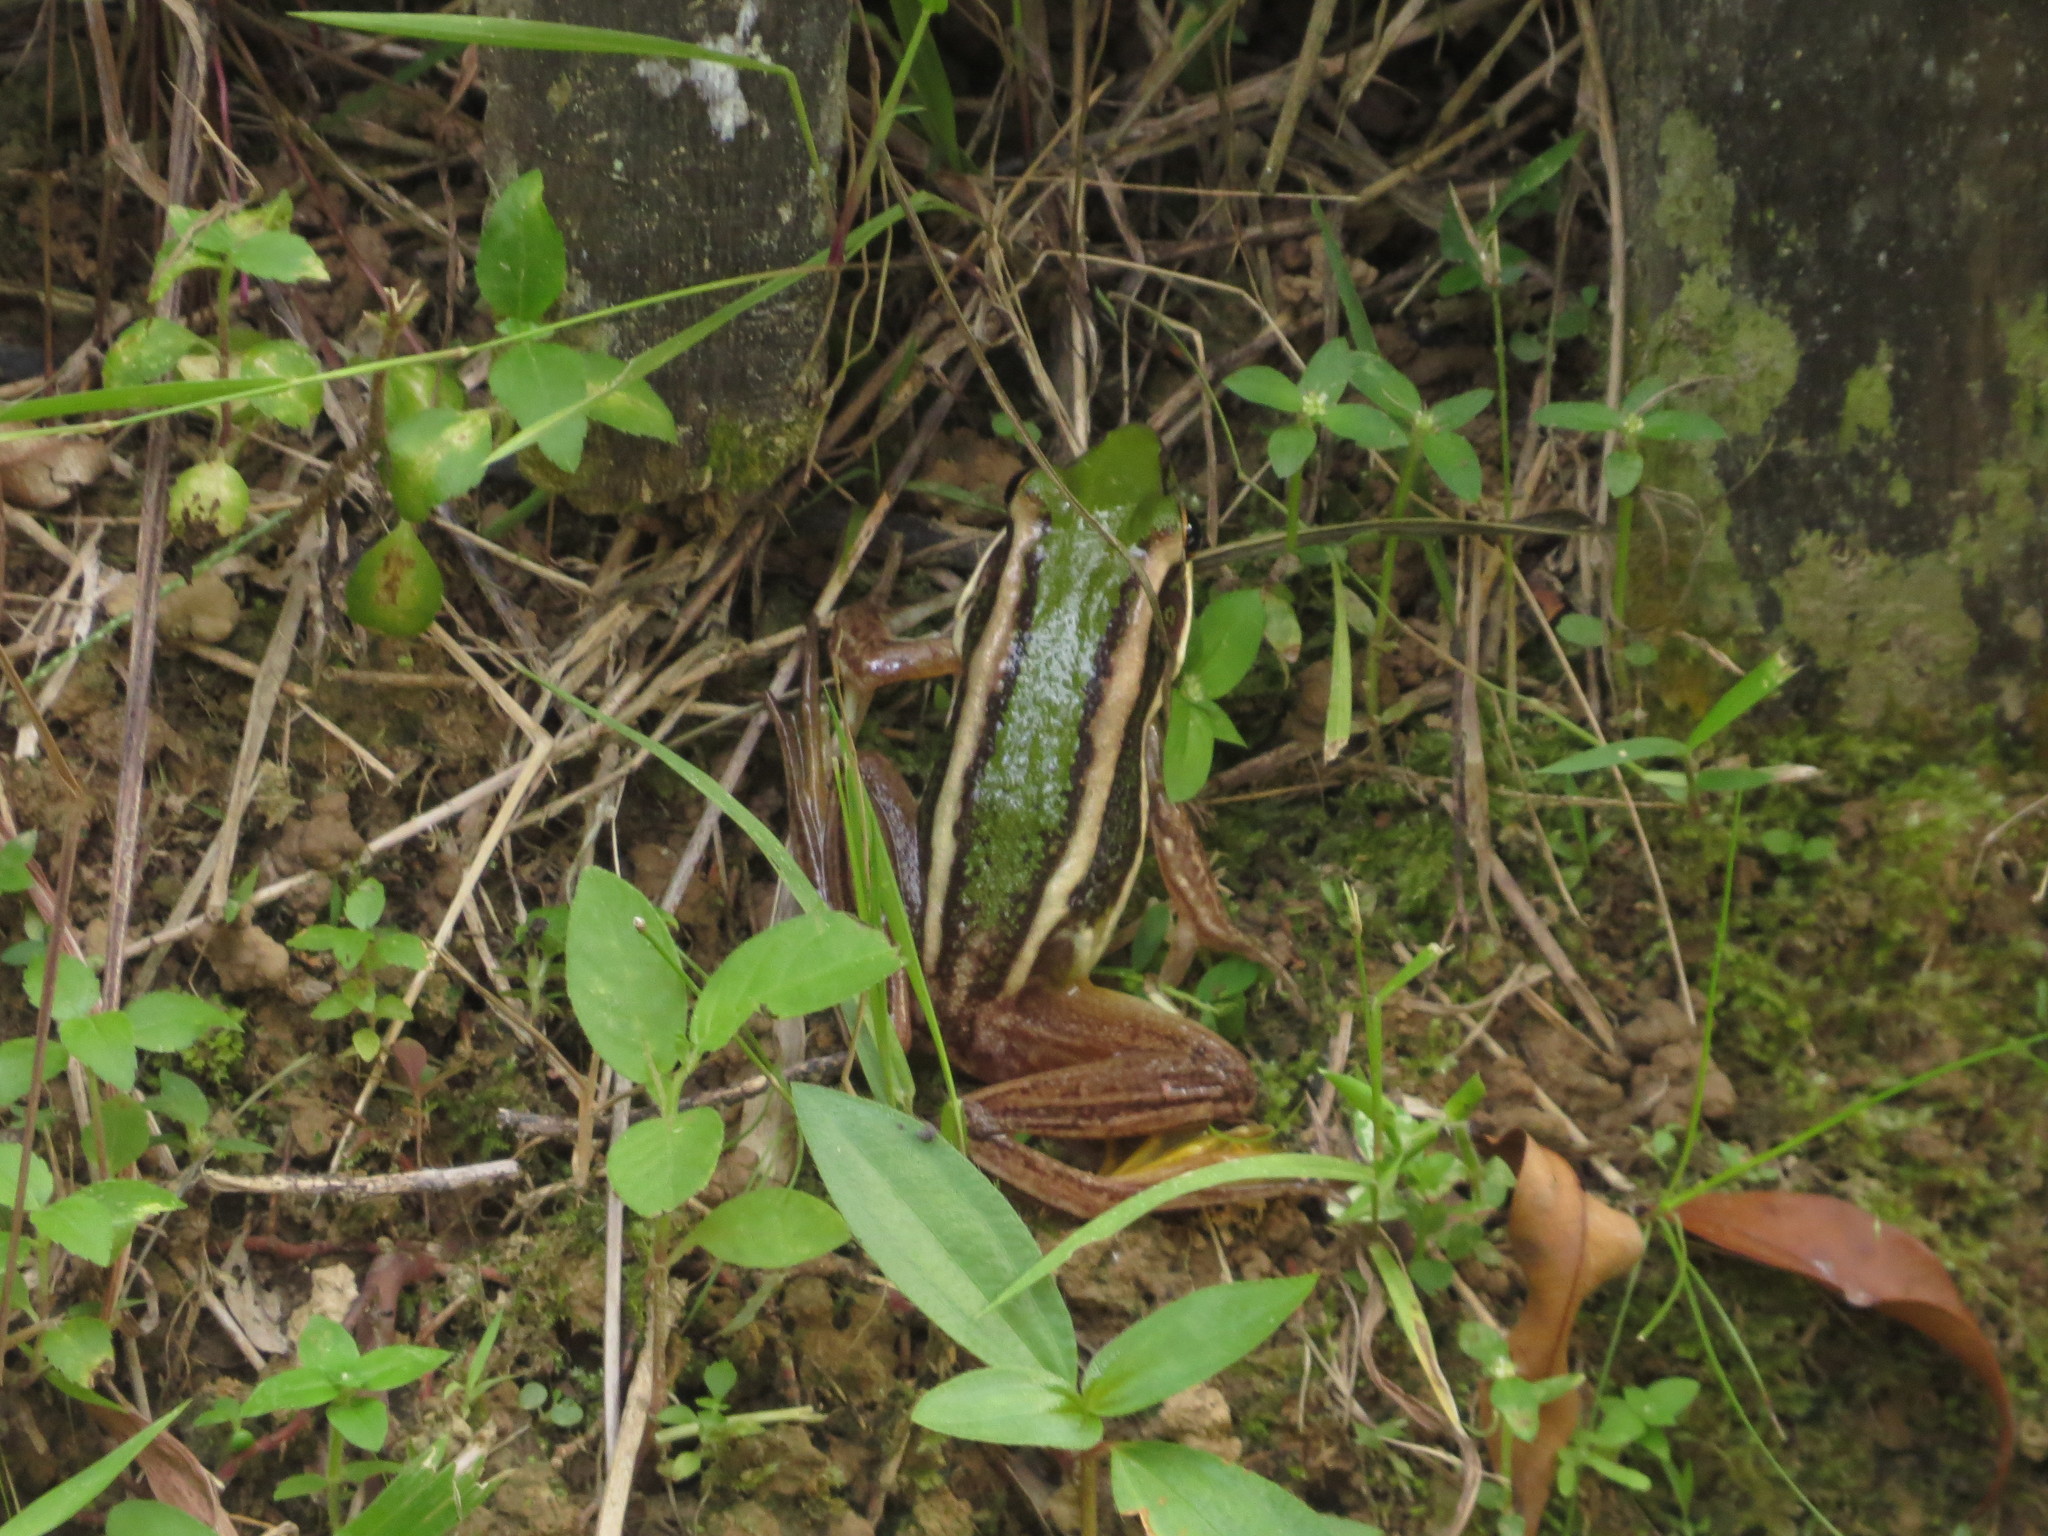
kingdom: Animalia
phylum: Chordata
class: Amphibia
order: Anura
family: Ranidae
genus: Hylarana
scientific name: Hylarana erythraea
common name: Common green frog/green paddy frog/leaf frog
